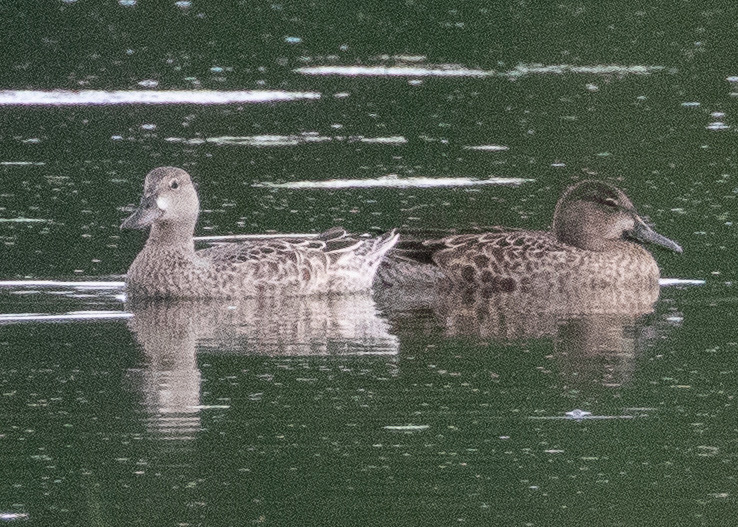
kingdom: Animalia
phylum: Chordata
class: Aves
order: Anseriformes
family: Anatidae
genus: Spatula
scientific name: Spatula discors
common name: Blue-winged teal
